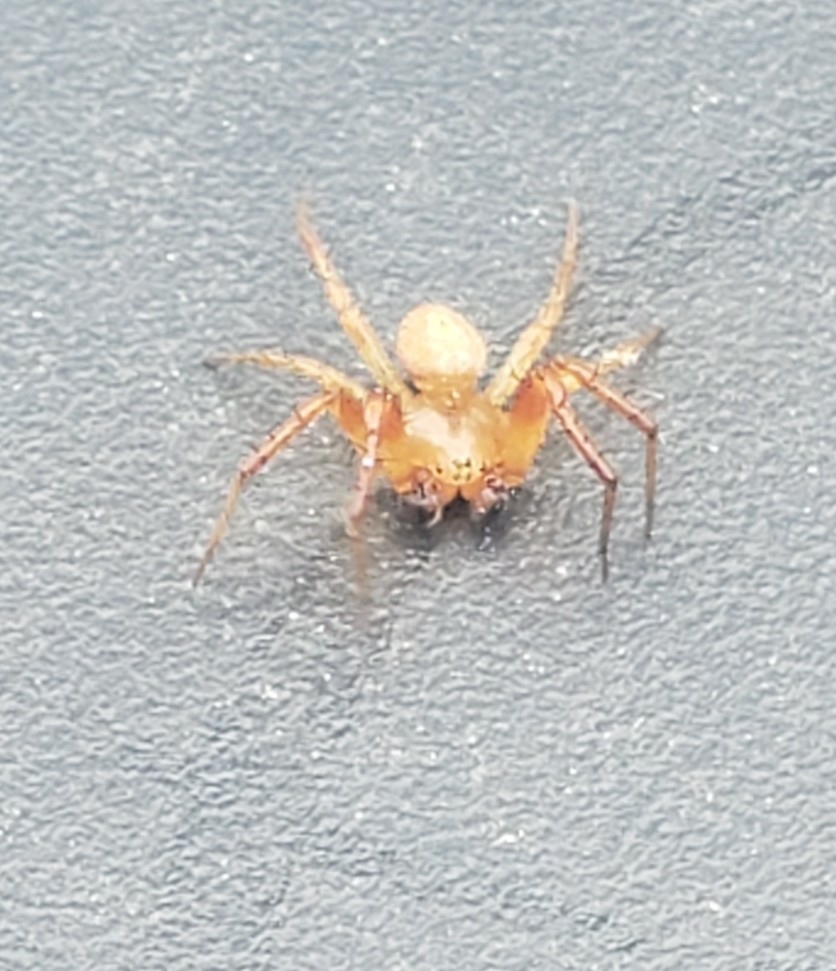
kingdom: Animalia
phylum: Arthropoda
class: Arachnida
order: Araneae
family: Araneidae
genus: Araniella
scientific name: Araniella displicata
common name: Sixspotted orb weaver
